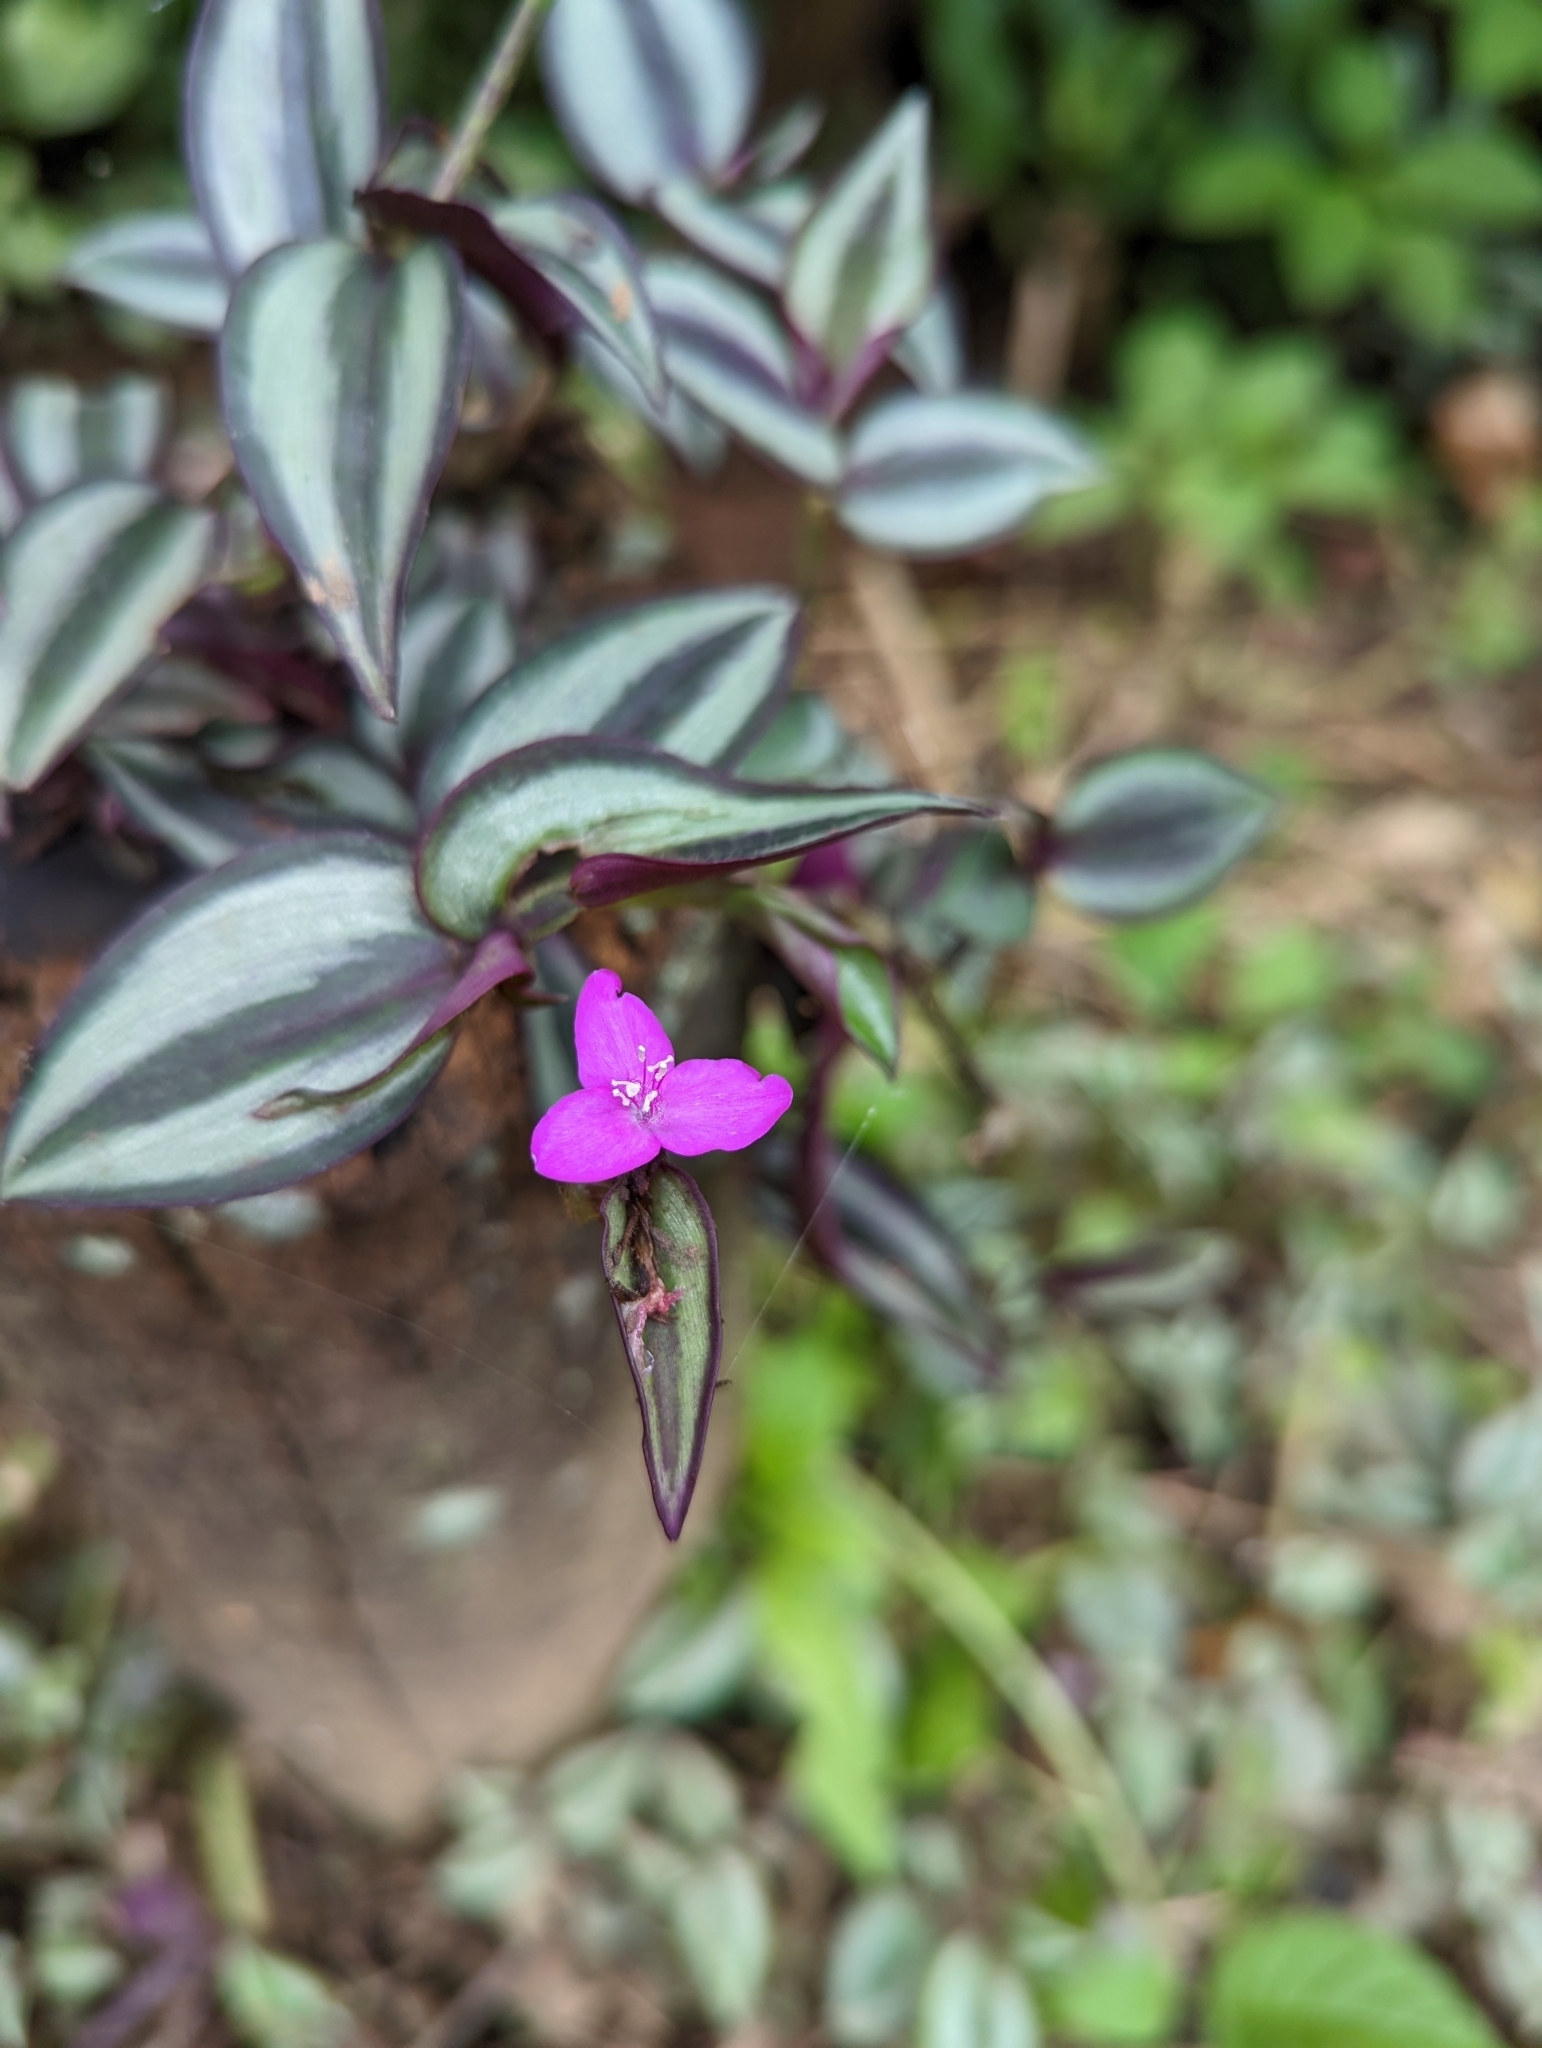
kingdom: Plantae
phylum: Tracheophyta
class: Liliopsida
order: Commelinales
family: Commelinaceae
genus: Tradescantia
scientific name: Tradescantia zebrina
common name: Inchplant
